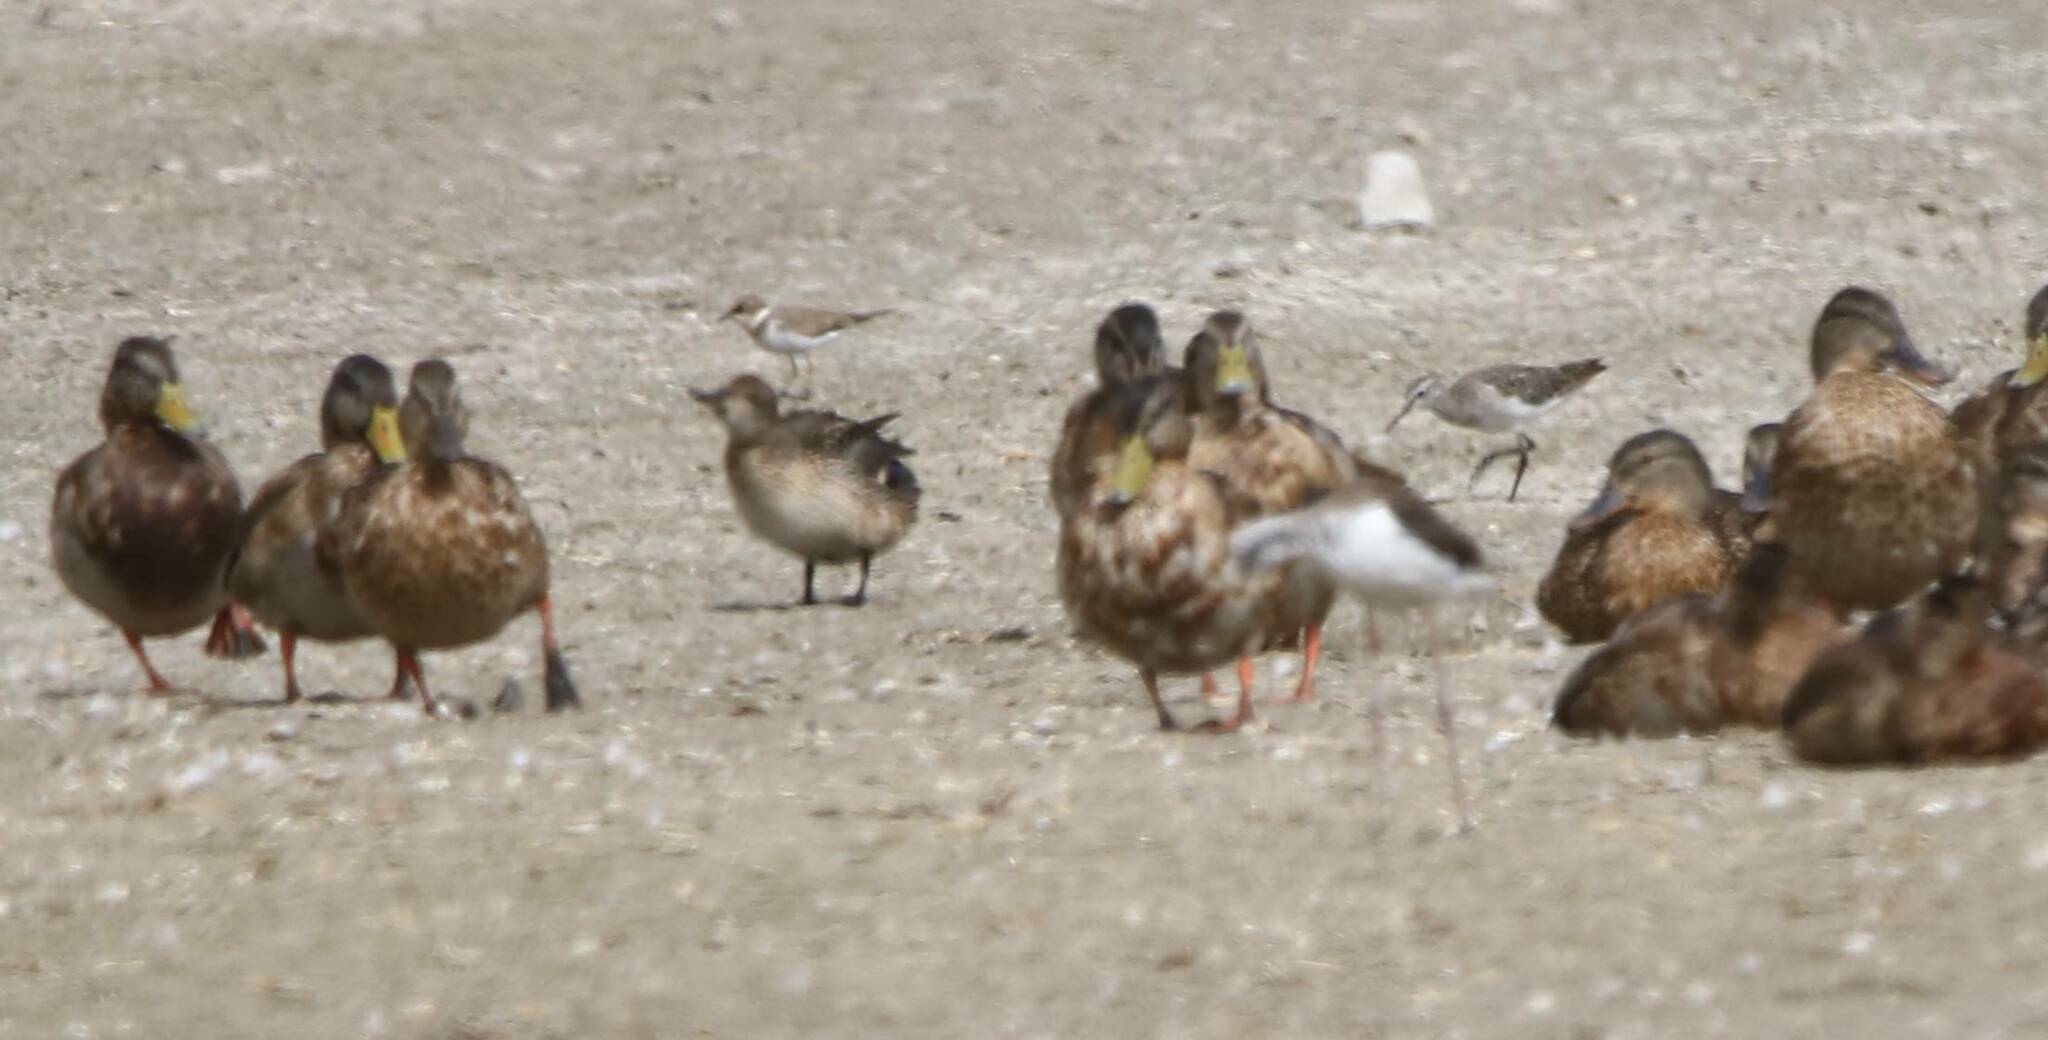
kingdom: Animalia
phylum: Chordata
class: Aves
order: Anseriformes
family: Anatidae
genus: Anas
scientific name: Anas platyrhynchos
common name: Mallard
